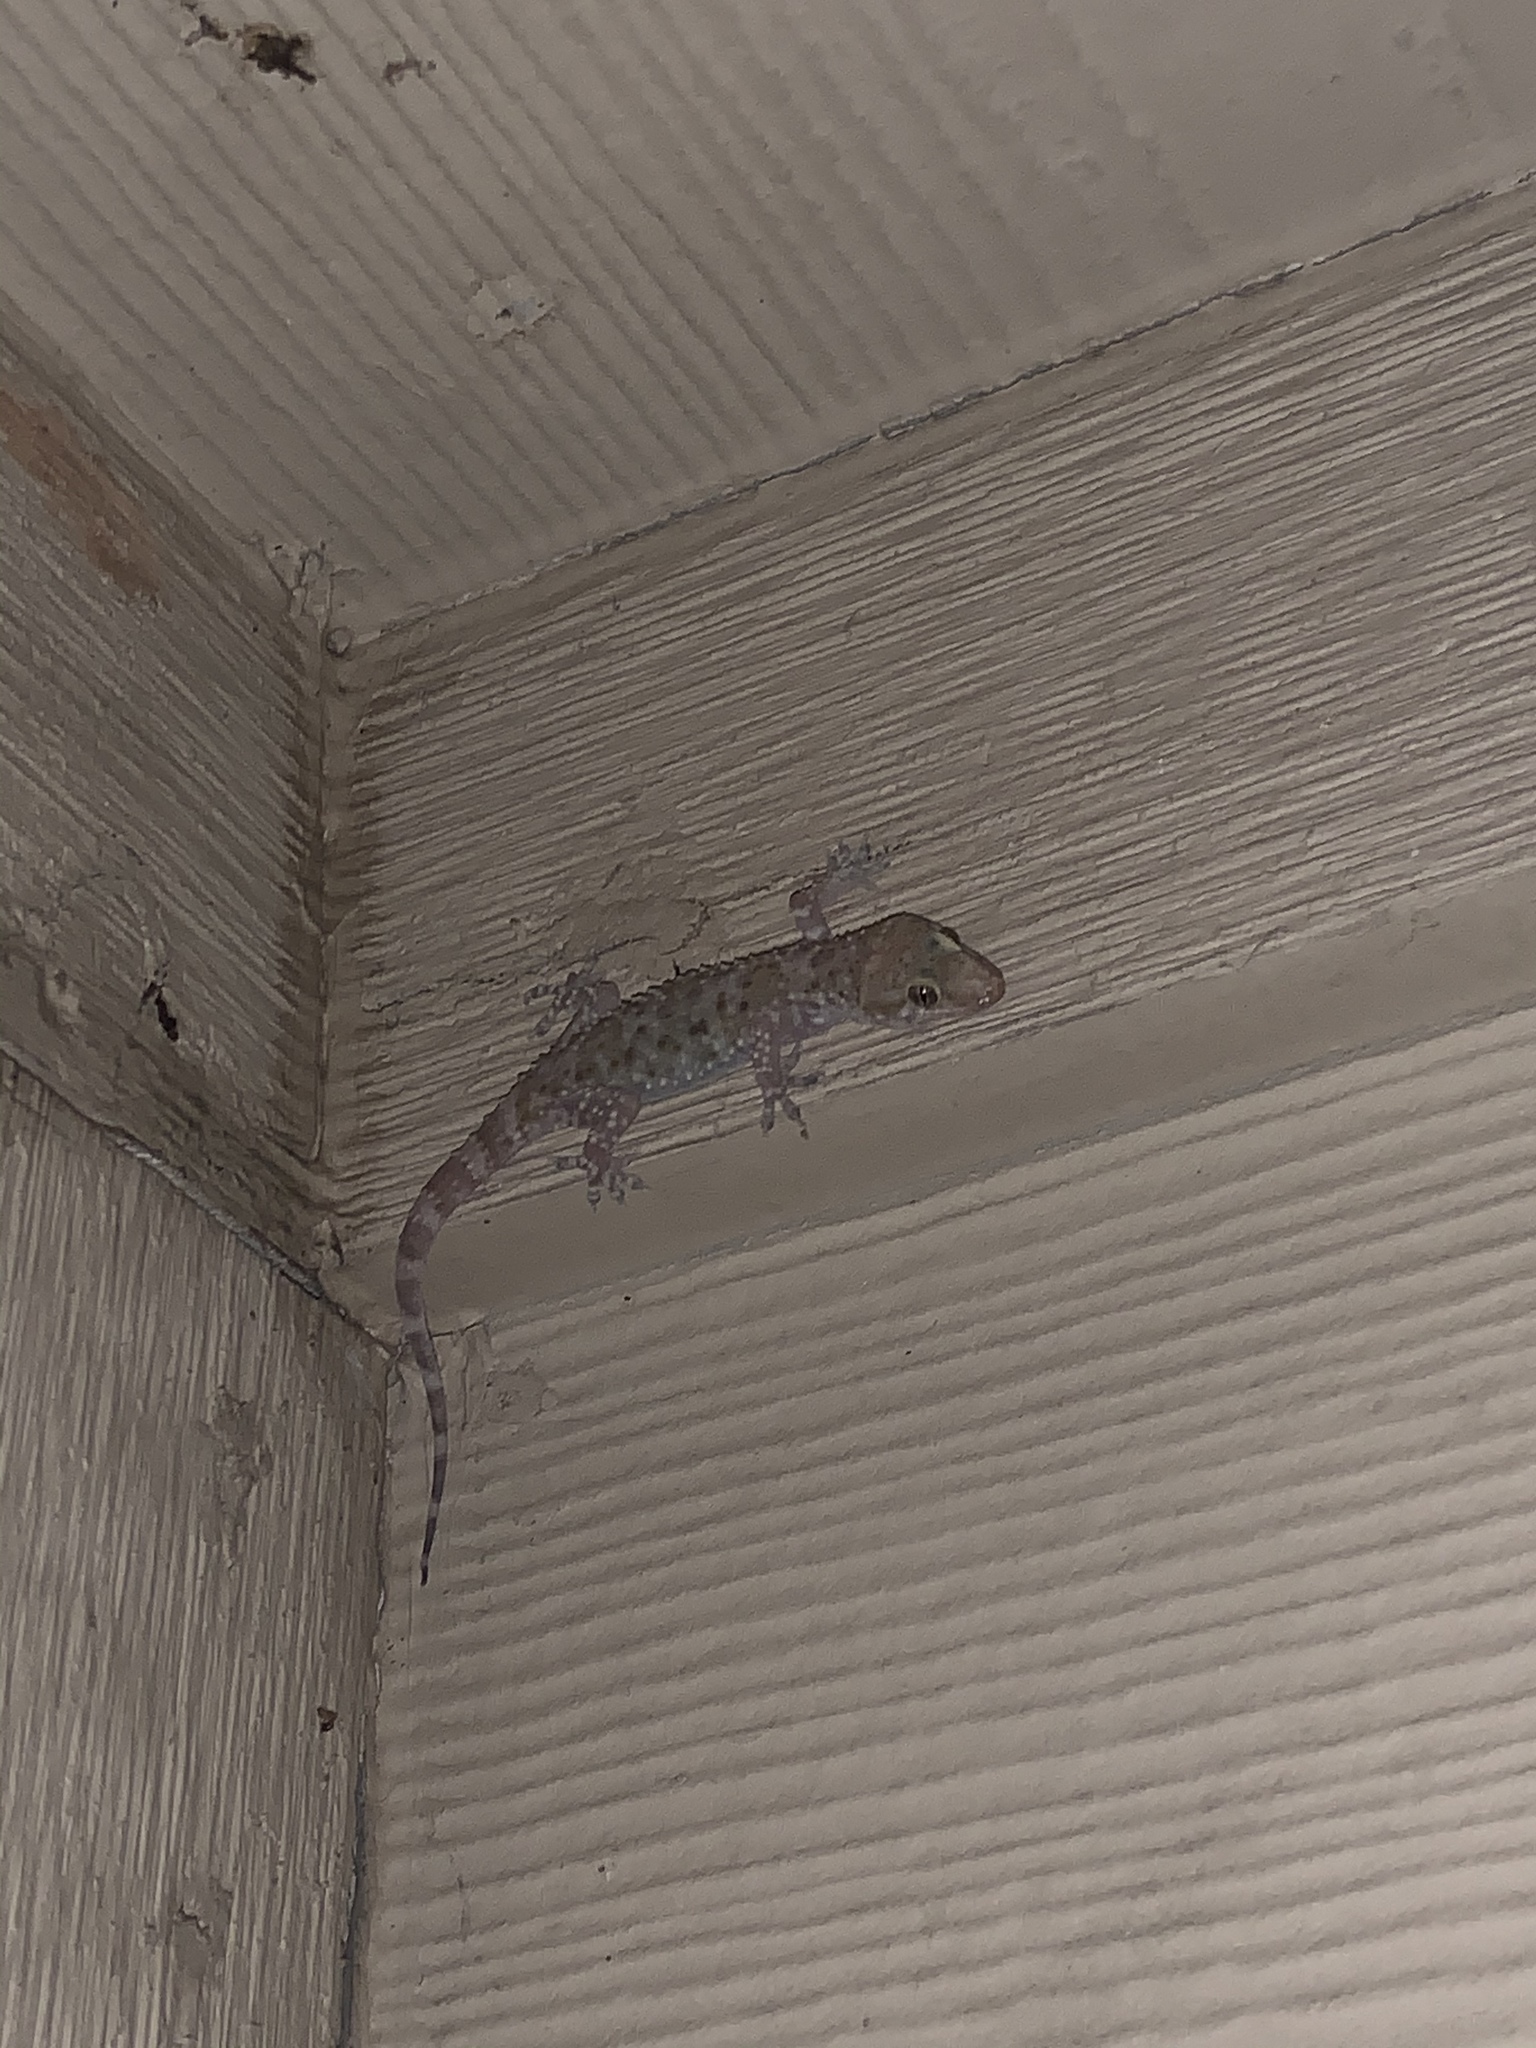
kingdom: Animalia
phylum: Chordata
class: Squamata
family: Gekkonidae
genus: Hemidactylus
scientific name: Hemidactylus turcicus
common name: Turkish gecko
